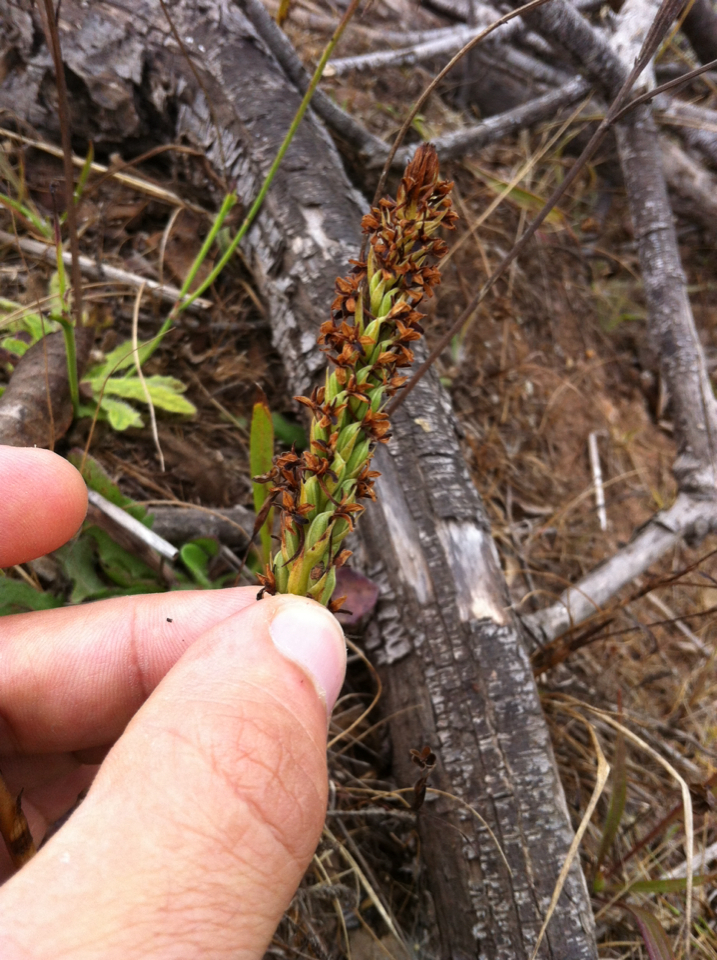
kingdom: Plantae
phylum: Tracheophyta
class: Liliopsida
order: Asparagales
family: Orchidaceae
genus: Platanthera
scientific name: Platanthera elegans
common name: Coast piperia
